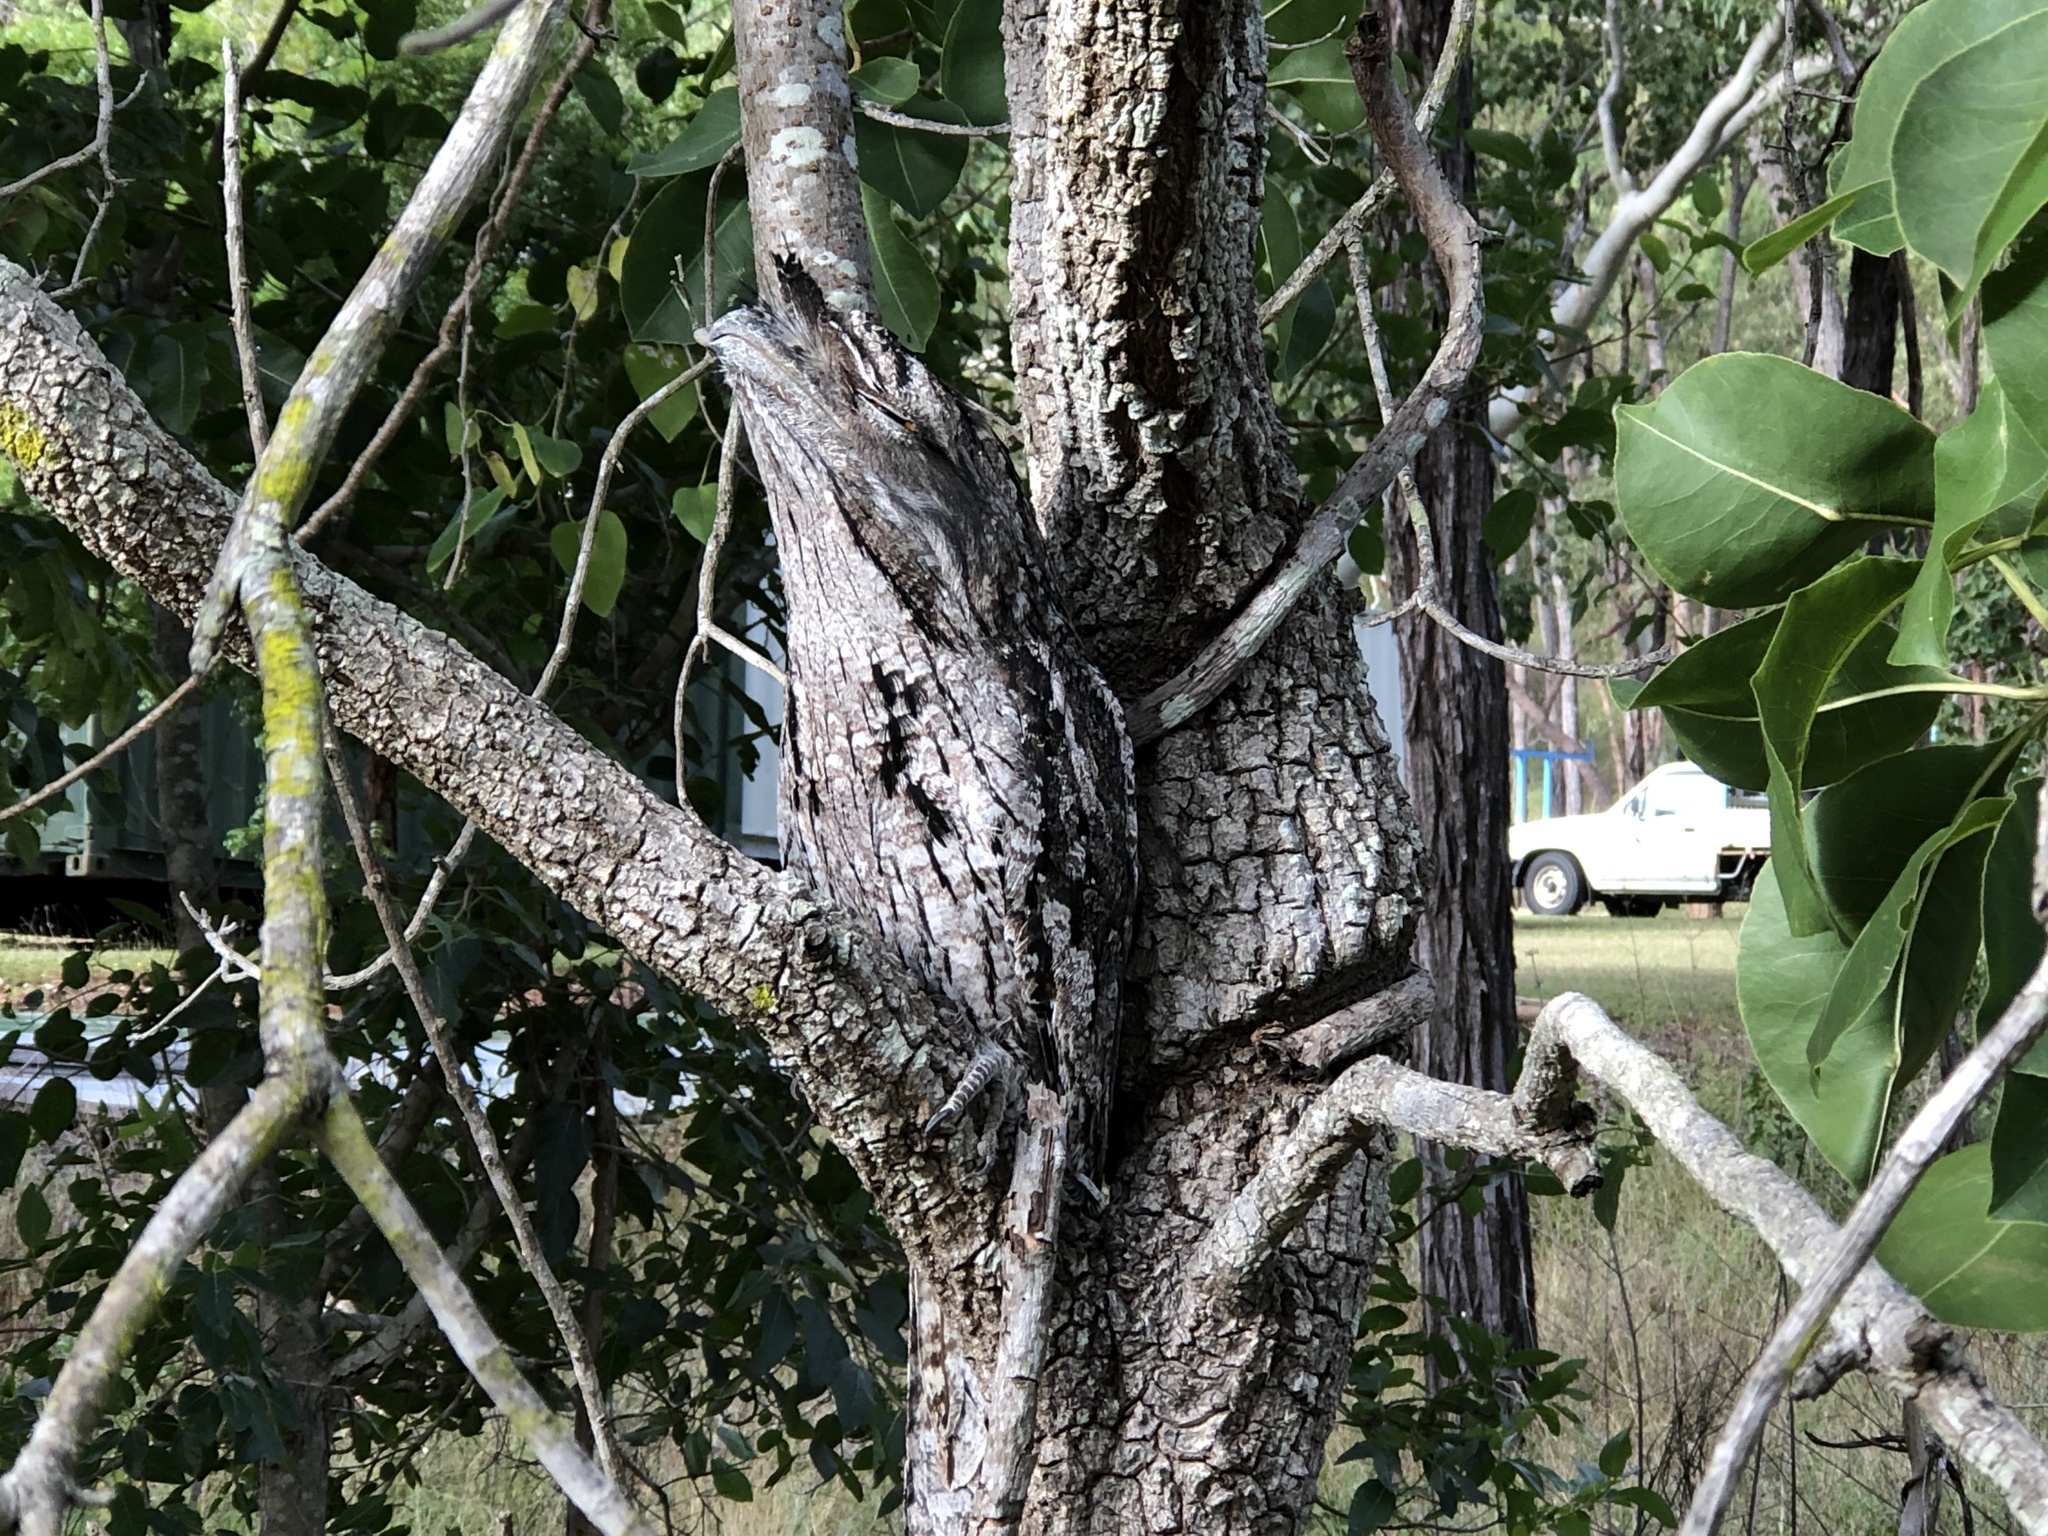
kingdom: Animalia
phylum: Chordata
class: Aves
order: Caprimulgiformes
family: Podargidae
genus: Podargus
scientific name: Podargus strigoides
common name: Tawny frogmouth
